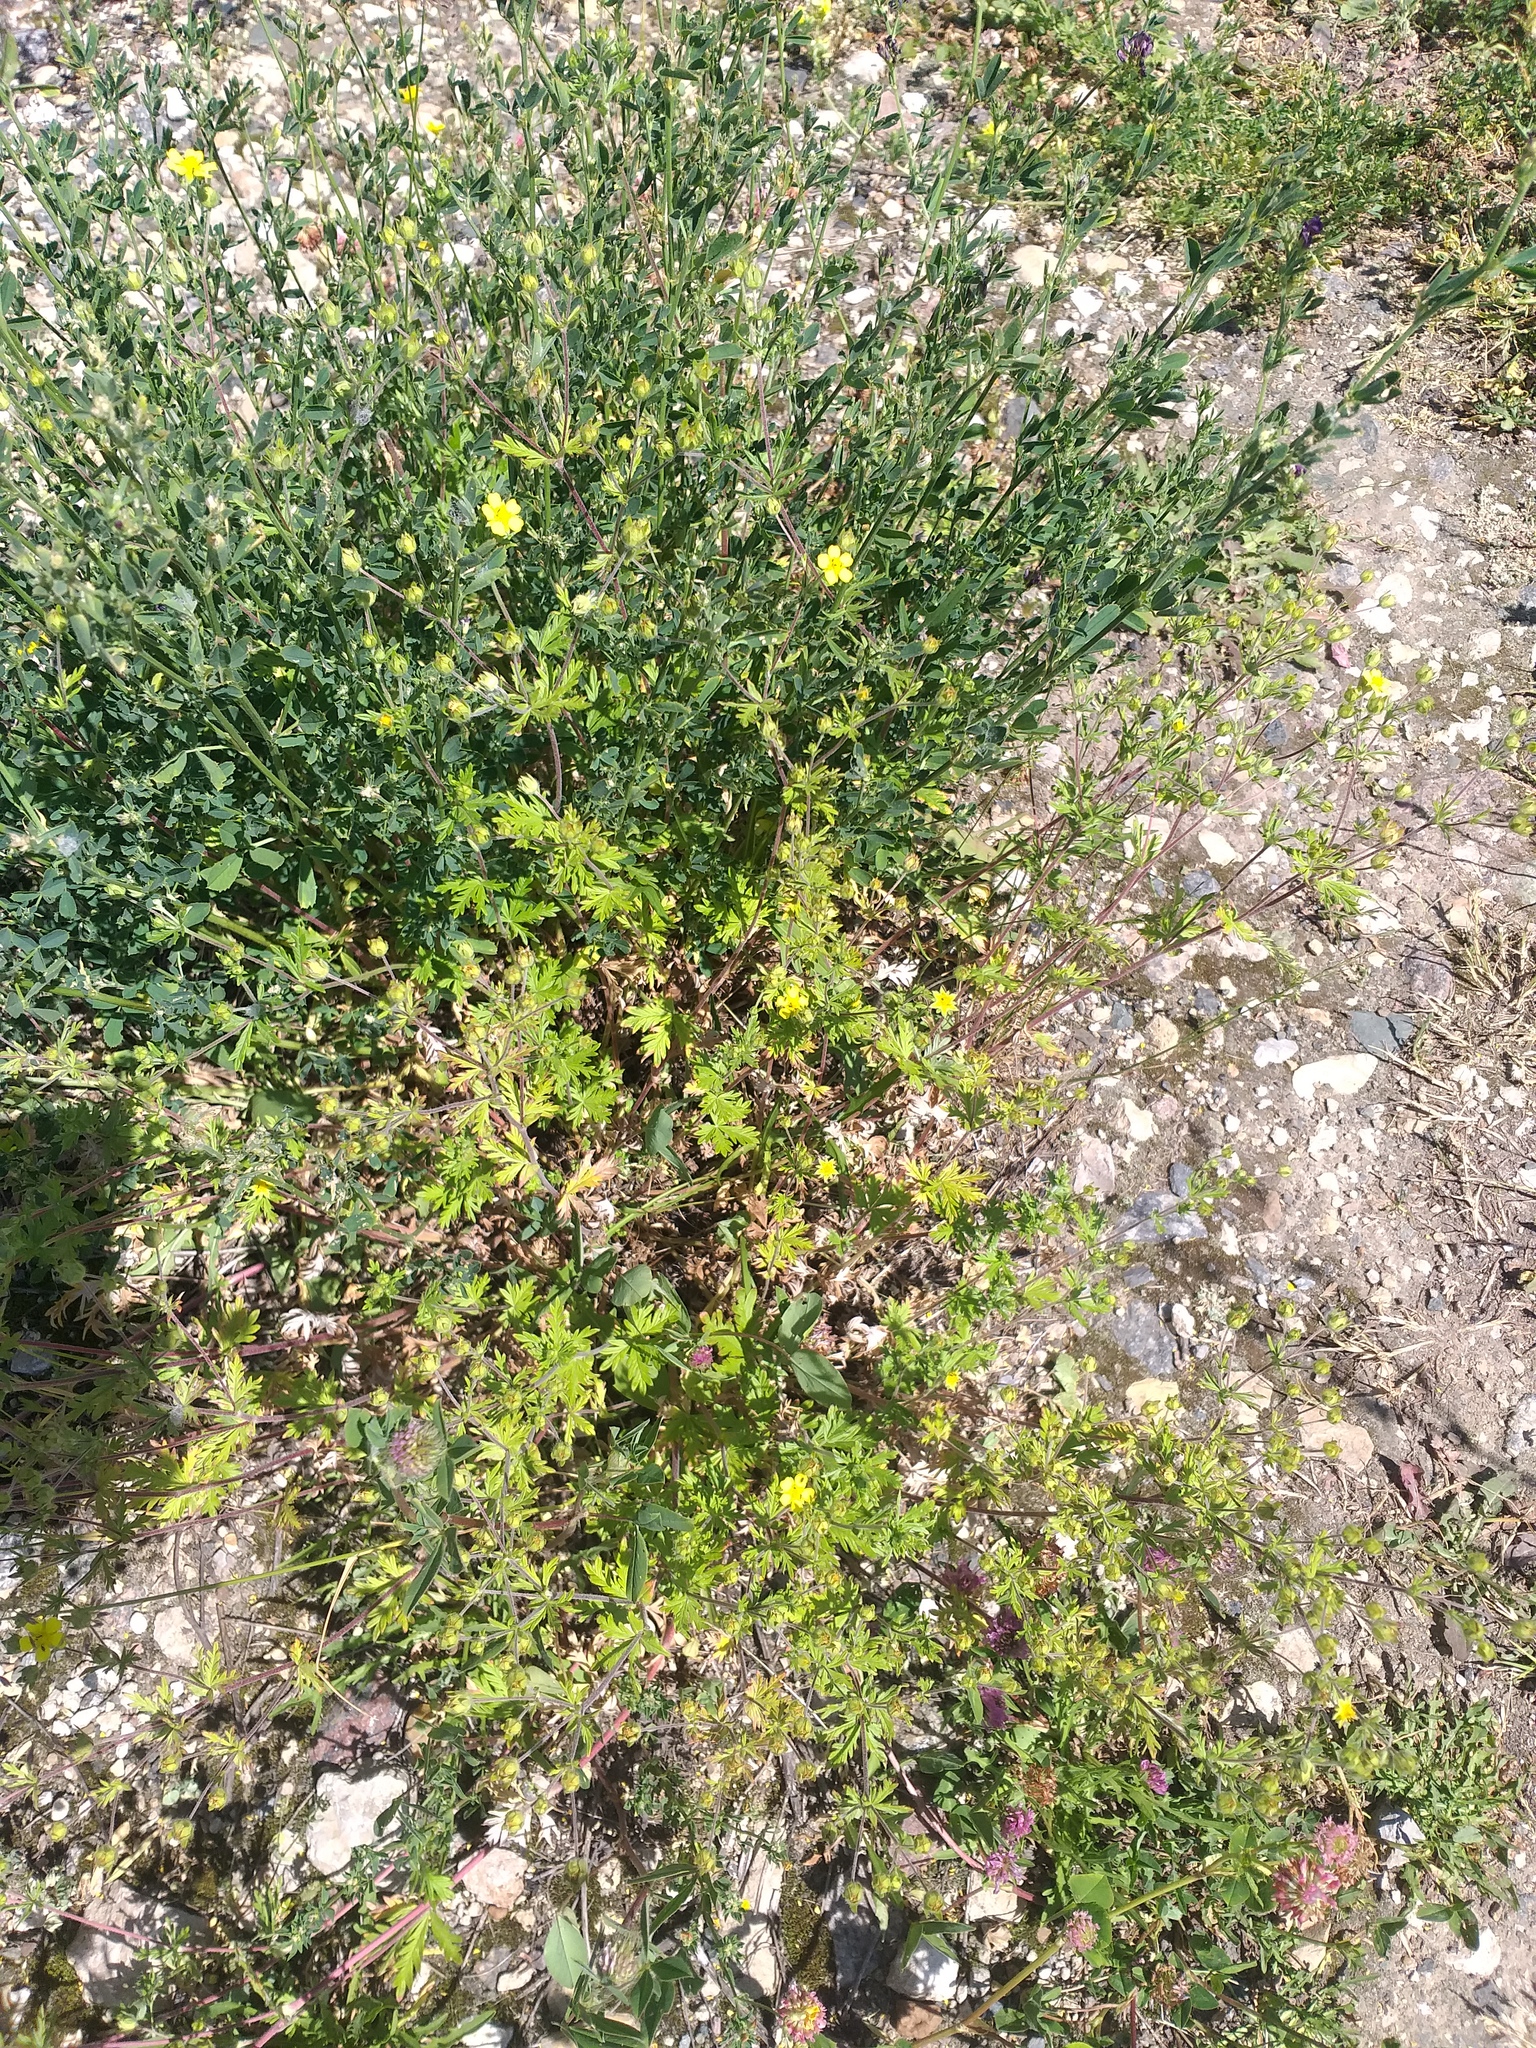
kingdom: Plantae
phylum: Tracheophyta
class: Magnoliopsida
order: Rosales
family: Rosaceae
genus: Potentilla
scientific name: Potentilla intermedia
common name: Downy cinquefoil
